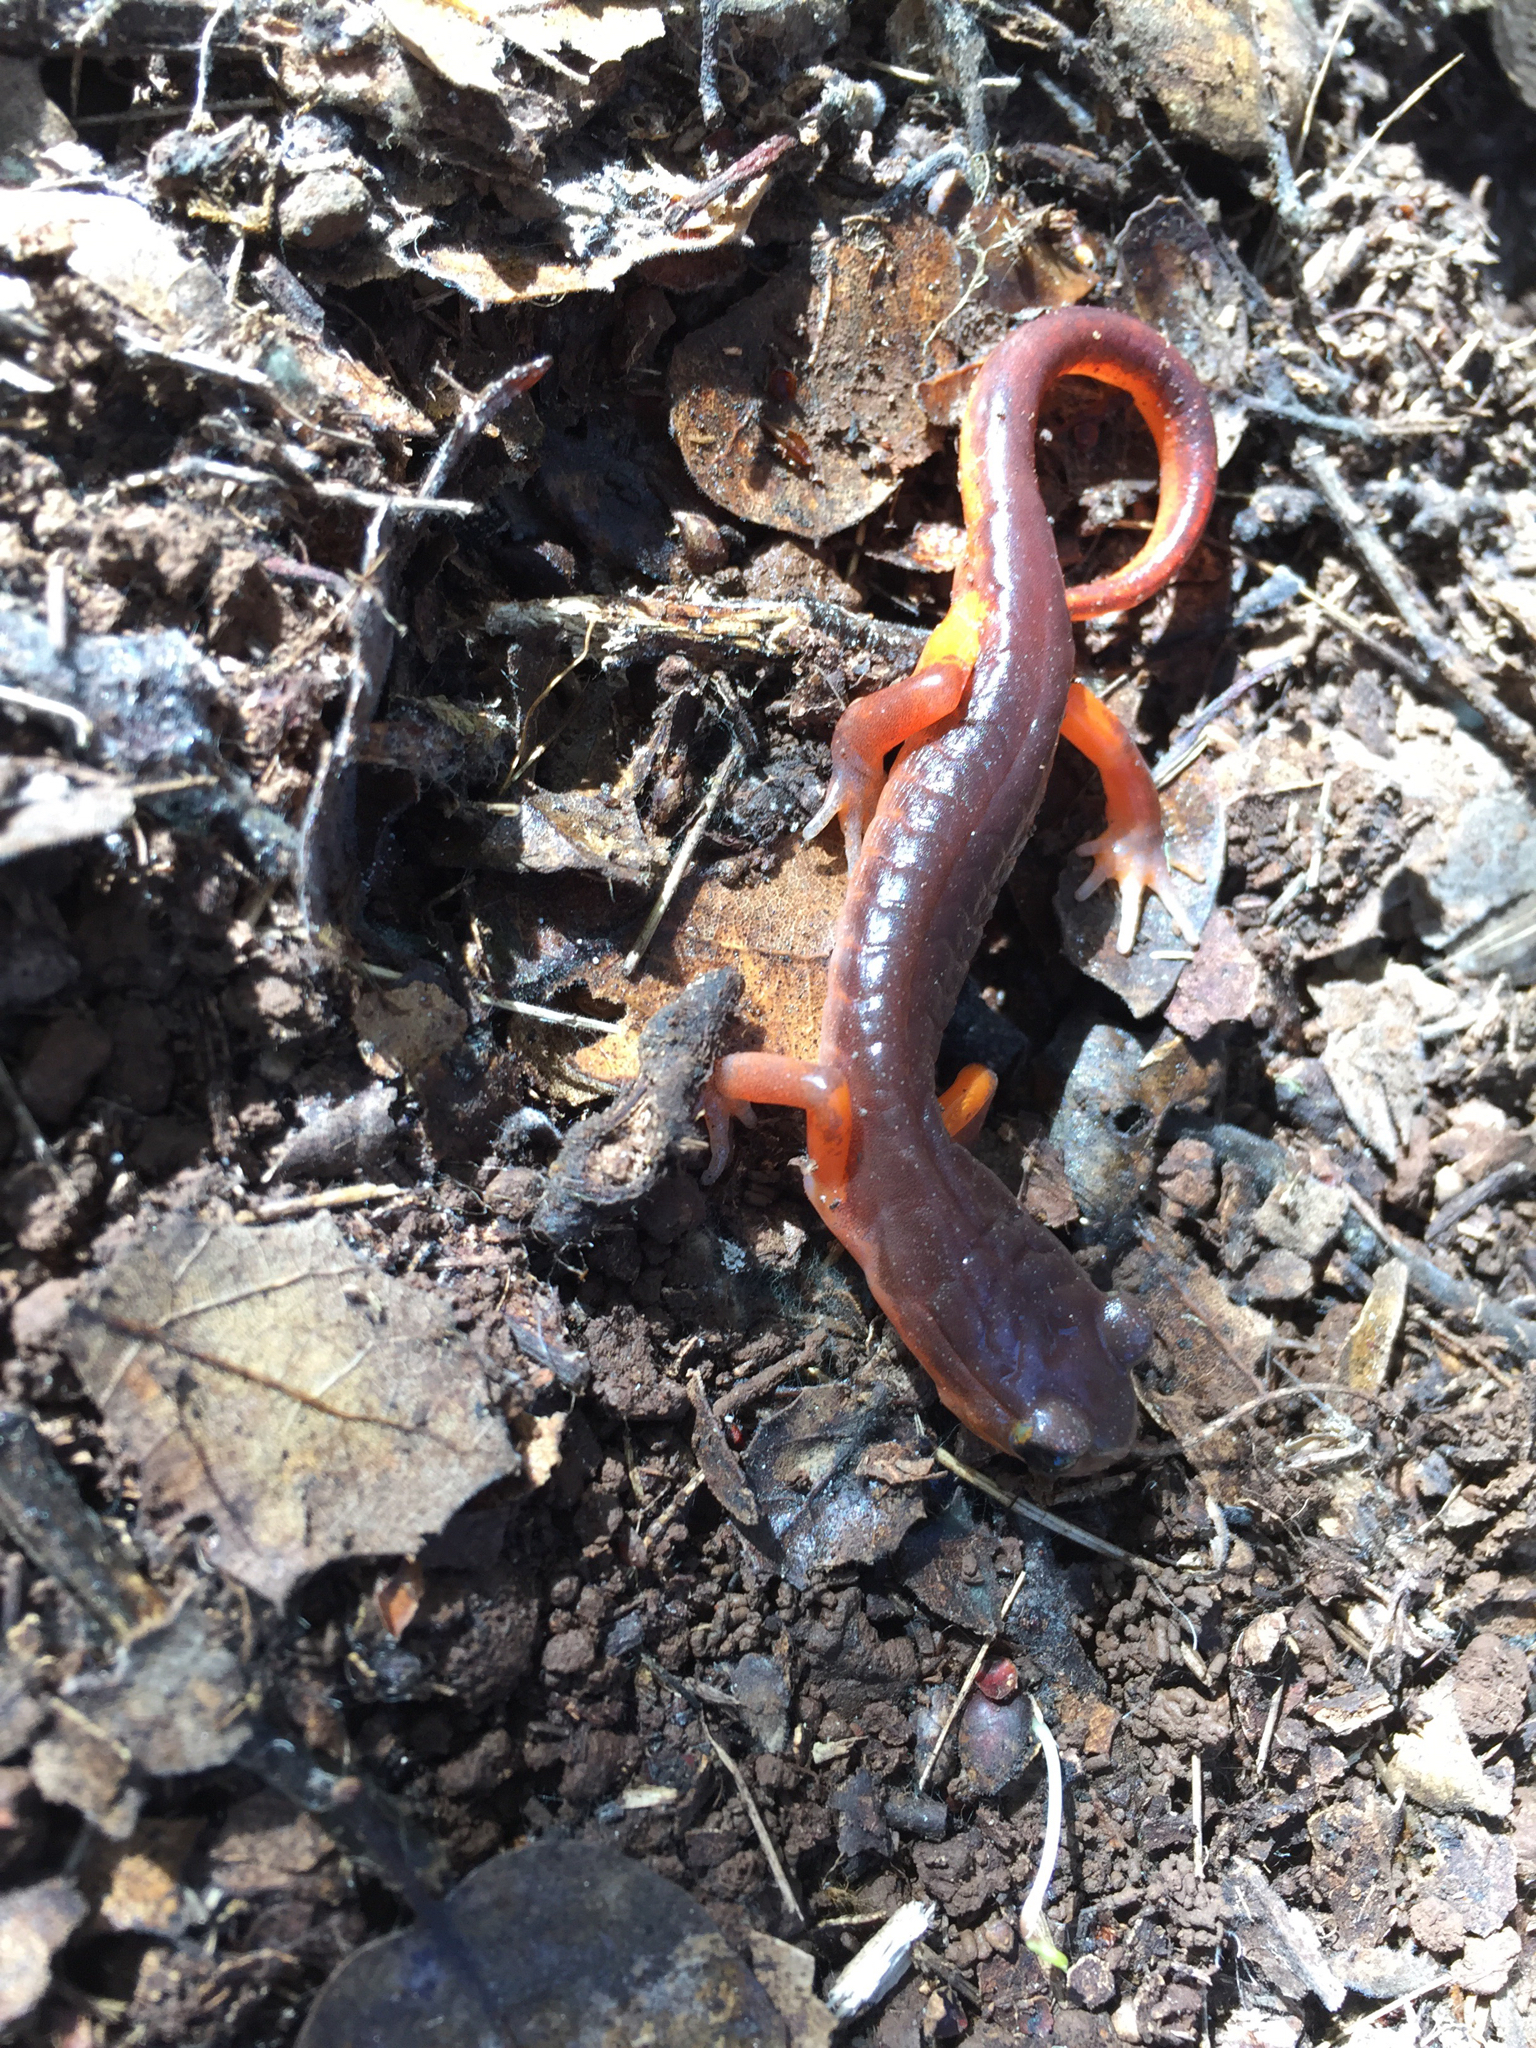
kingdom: Animalia
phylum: Chordata
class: Amphibia
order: Caudata
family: Plethodontidae
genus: Ensatina
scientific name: Ensatina eschscholtzii
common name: Ensatina
